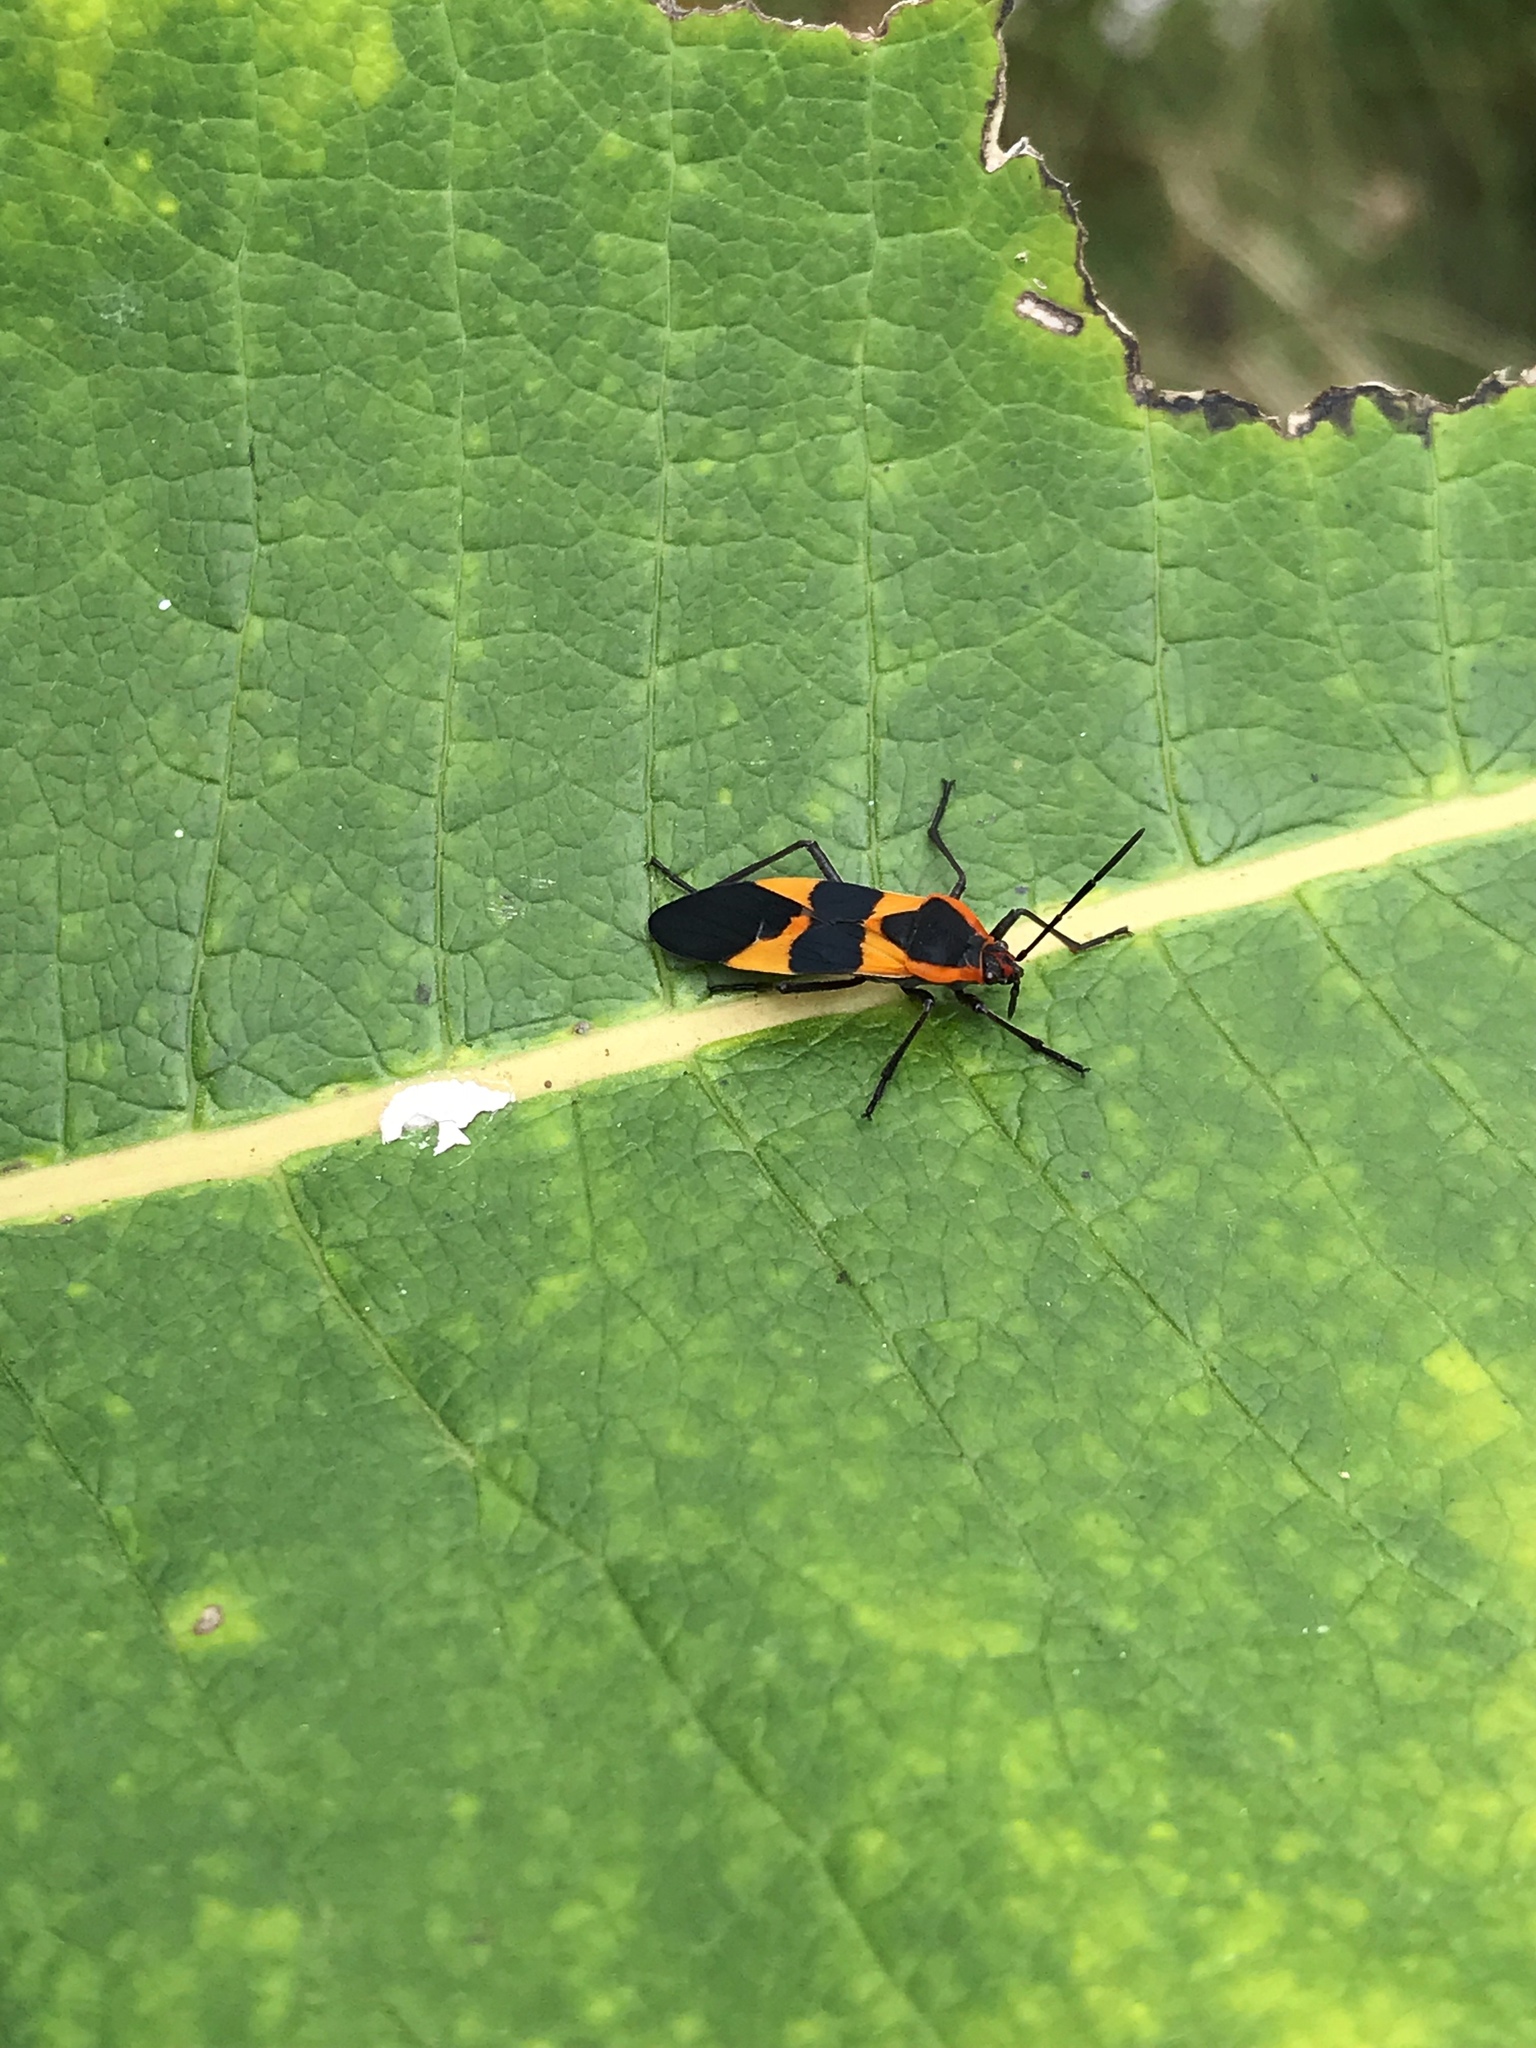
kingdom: Animalia
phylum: Arthropoda
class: Insecta
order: Hemiptera
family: Lygaeidae
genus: Oncopeltus
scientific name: Oncopeltus fasciatus
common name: Large milkweed bug
